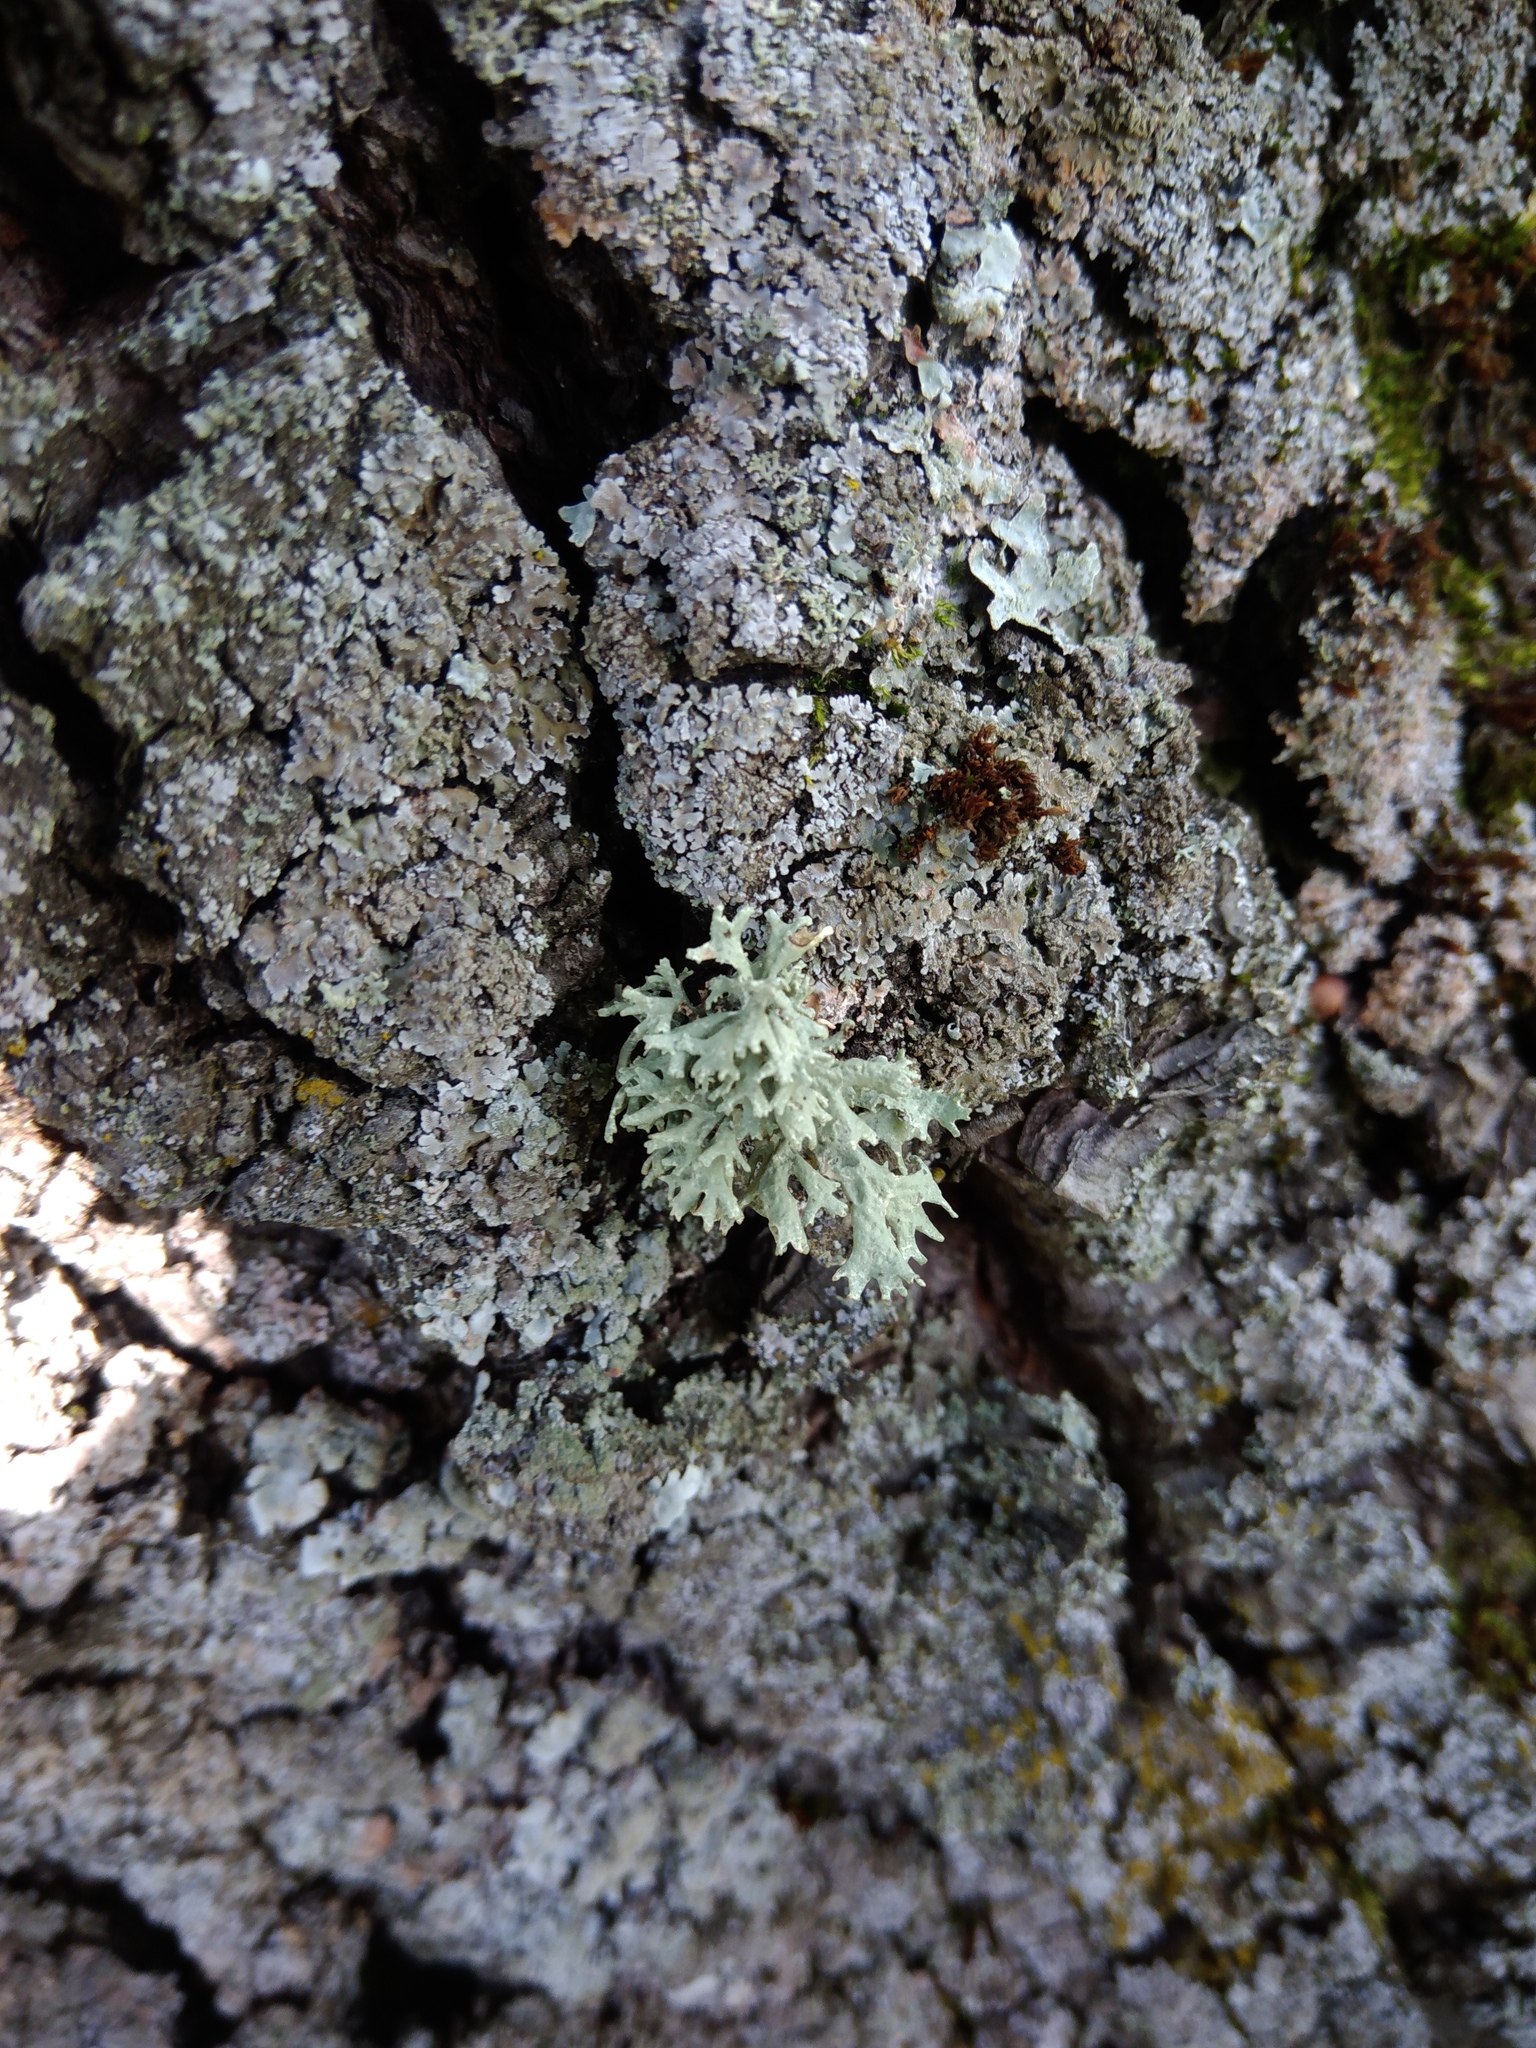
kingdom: Fungi
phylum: Ascomycota
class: Lecanoromycetes
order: Lecanorales
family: Parmeliaceae
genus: Evernia
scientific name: Evernia prunastri
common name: Oak moss
